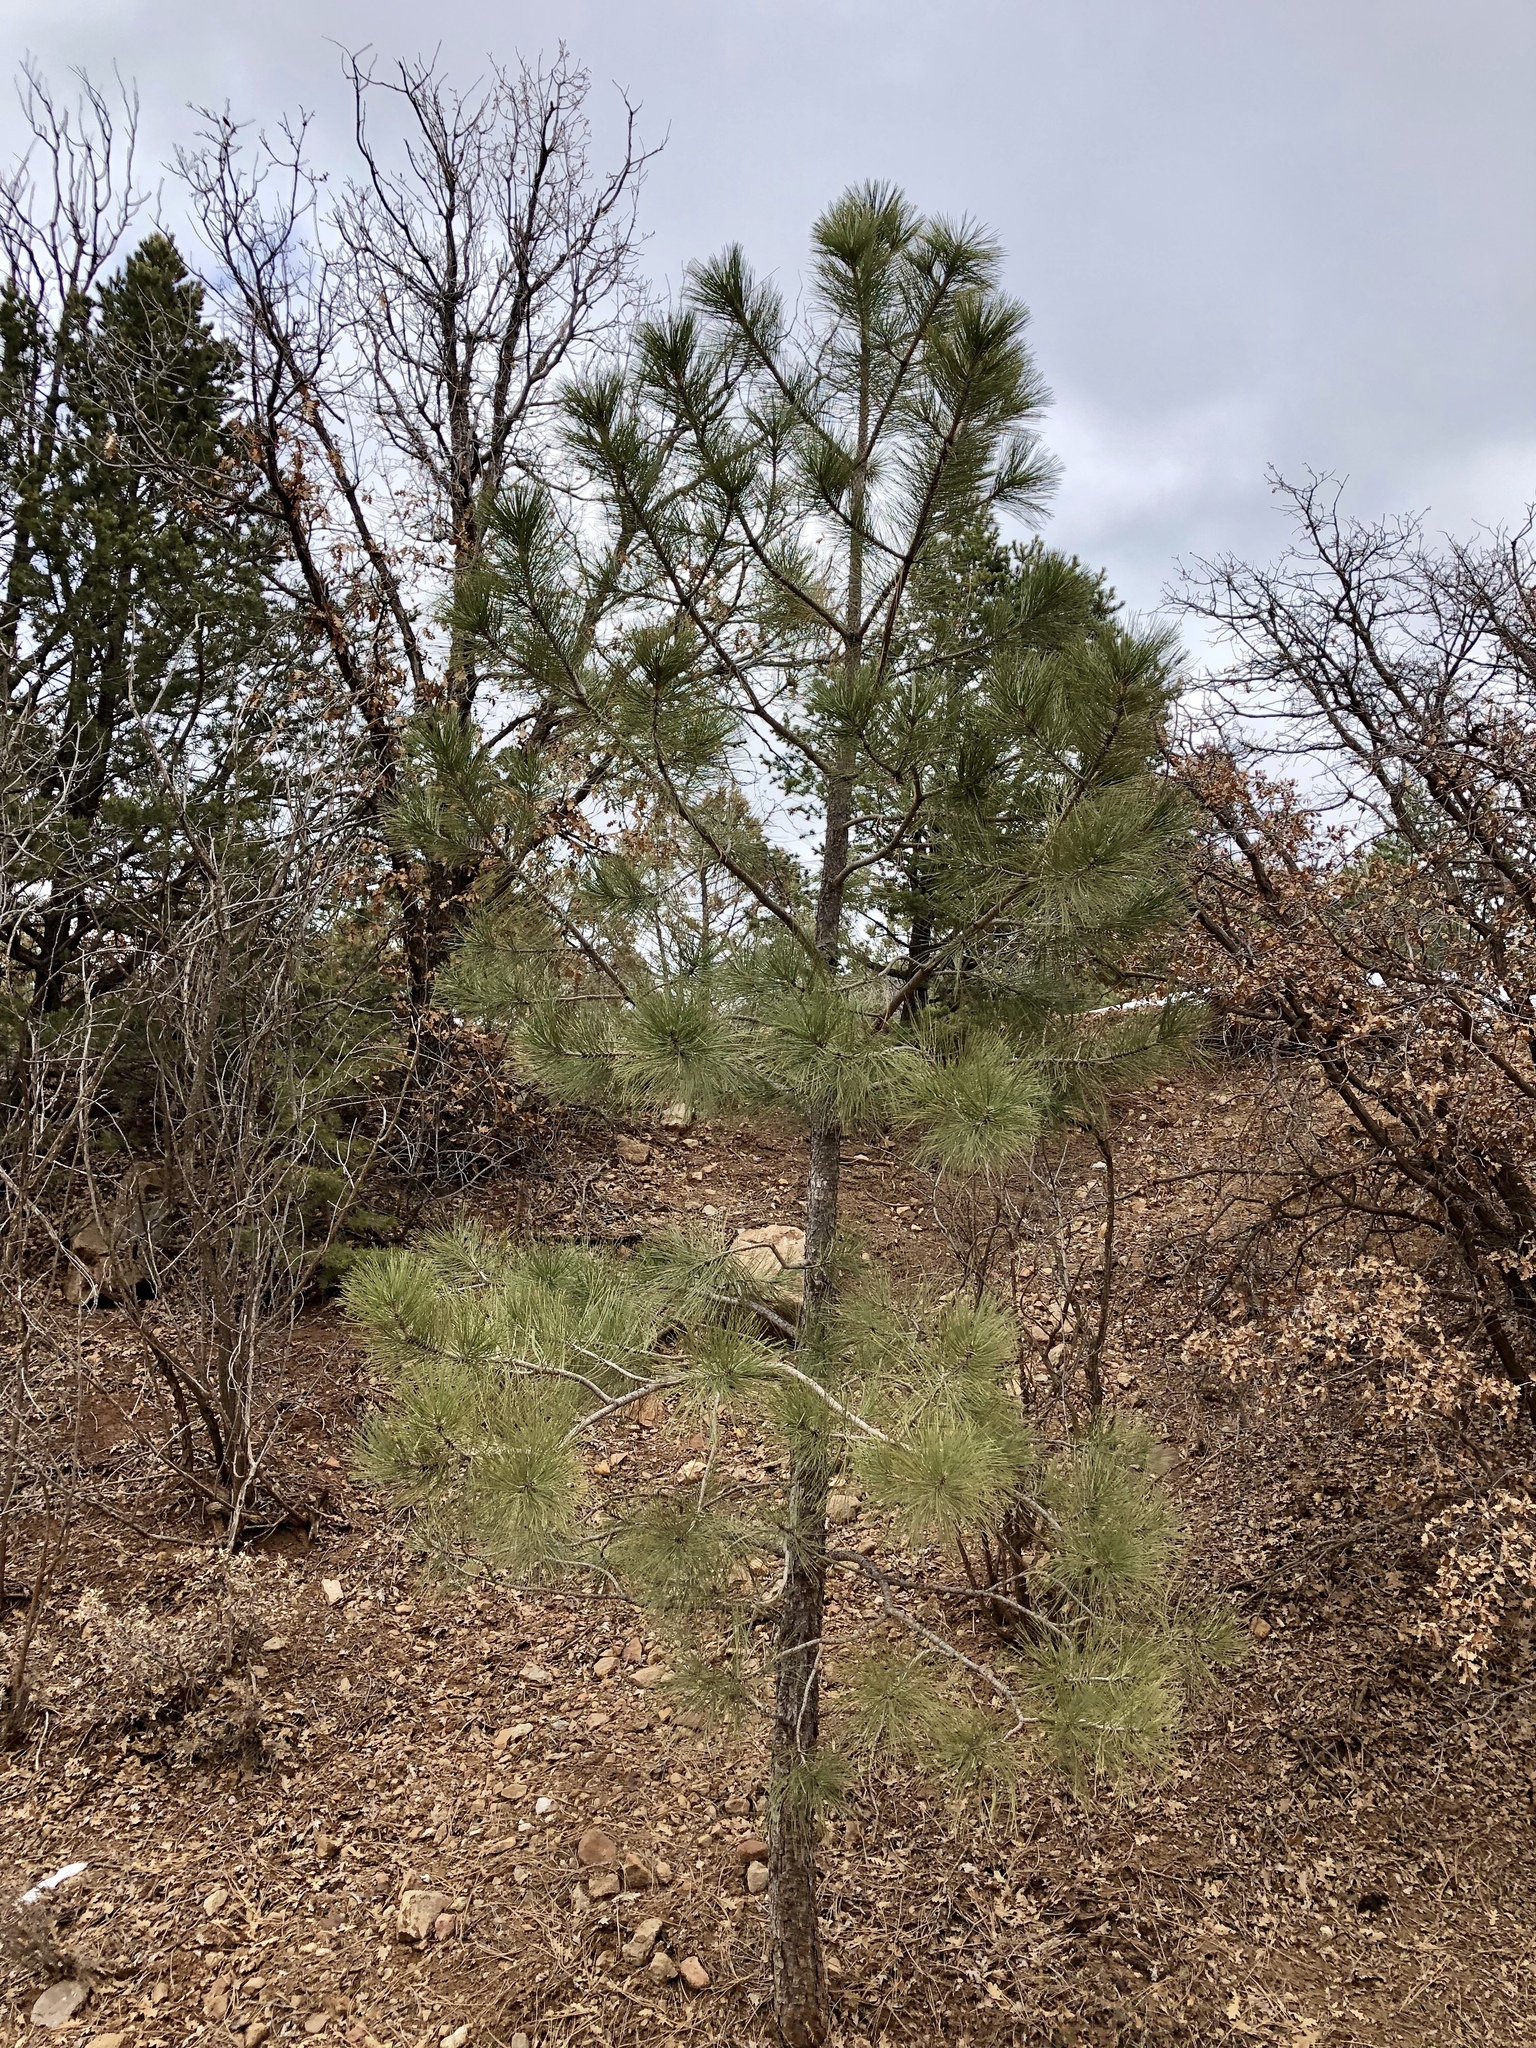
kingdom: Plantae
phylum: Tracheophyta
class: Pinopsida
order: Pinales
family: Pinaceae
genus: Pinus
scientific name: Pinus ponderosa
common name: Western yellow-pine
